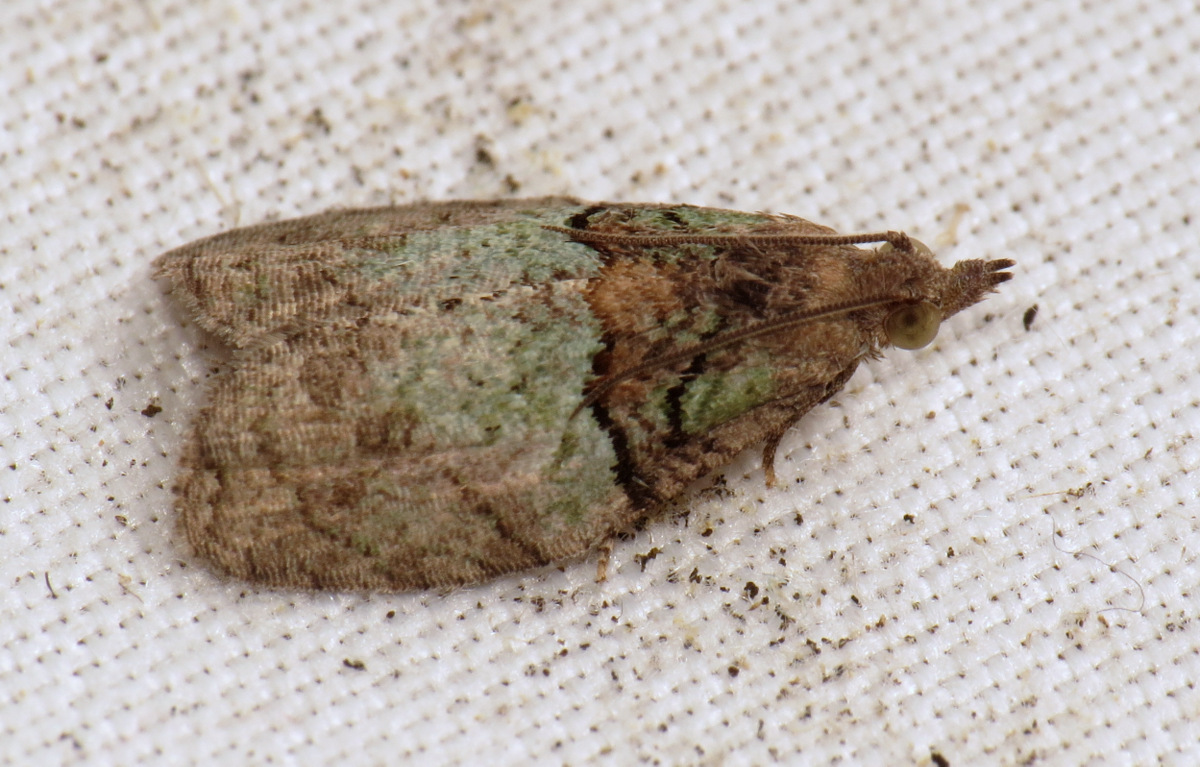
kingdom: Animalia
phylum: Arthropoda
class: Insecta
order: Lepidoptera
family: Tortricidae
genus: Epinotia
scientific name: Epinotia medioviridana
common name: Raspberry leaf-roller moth
